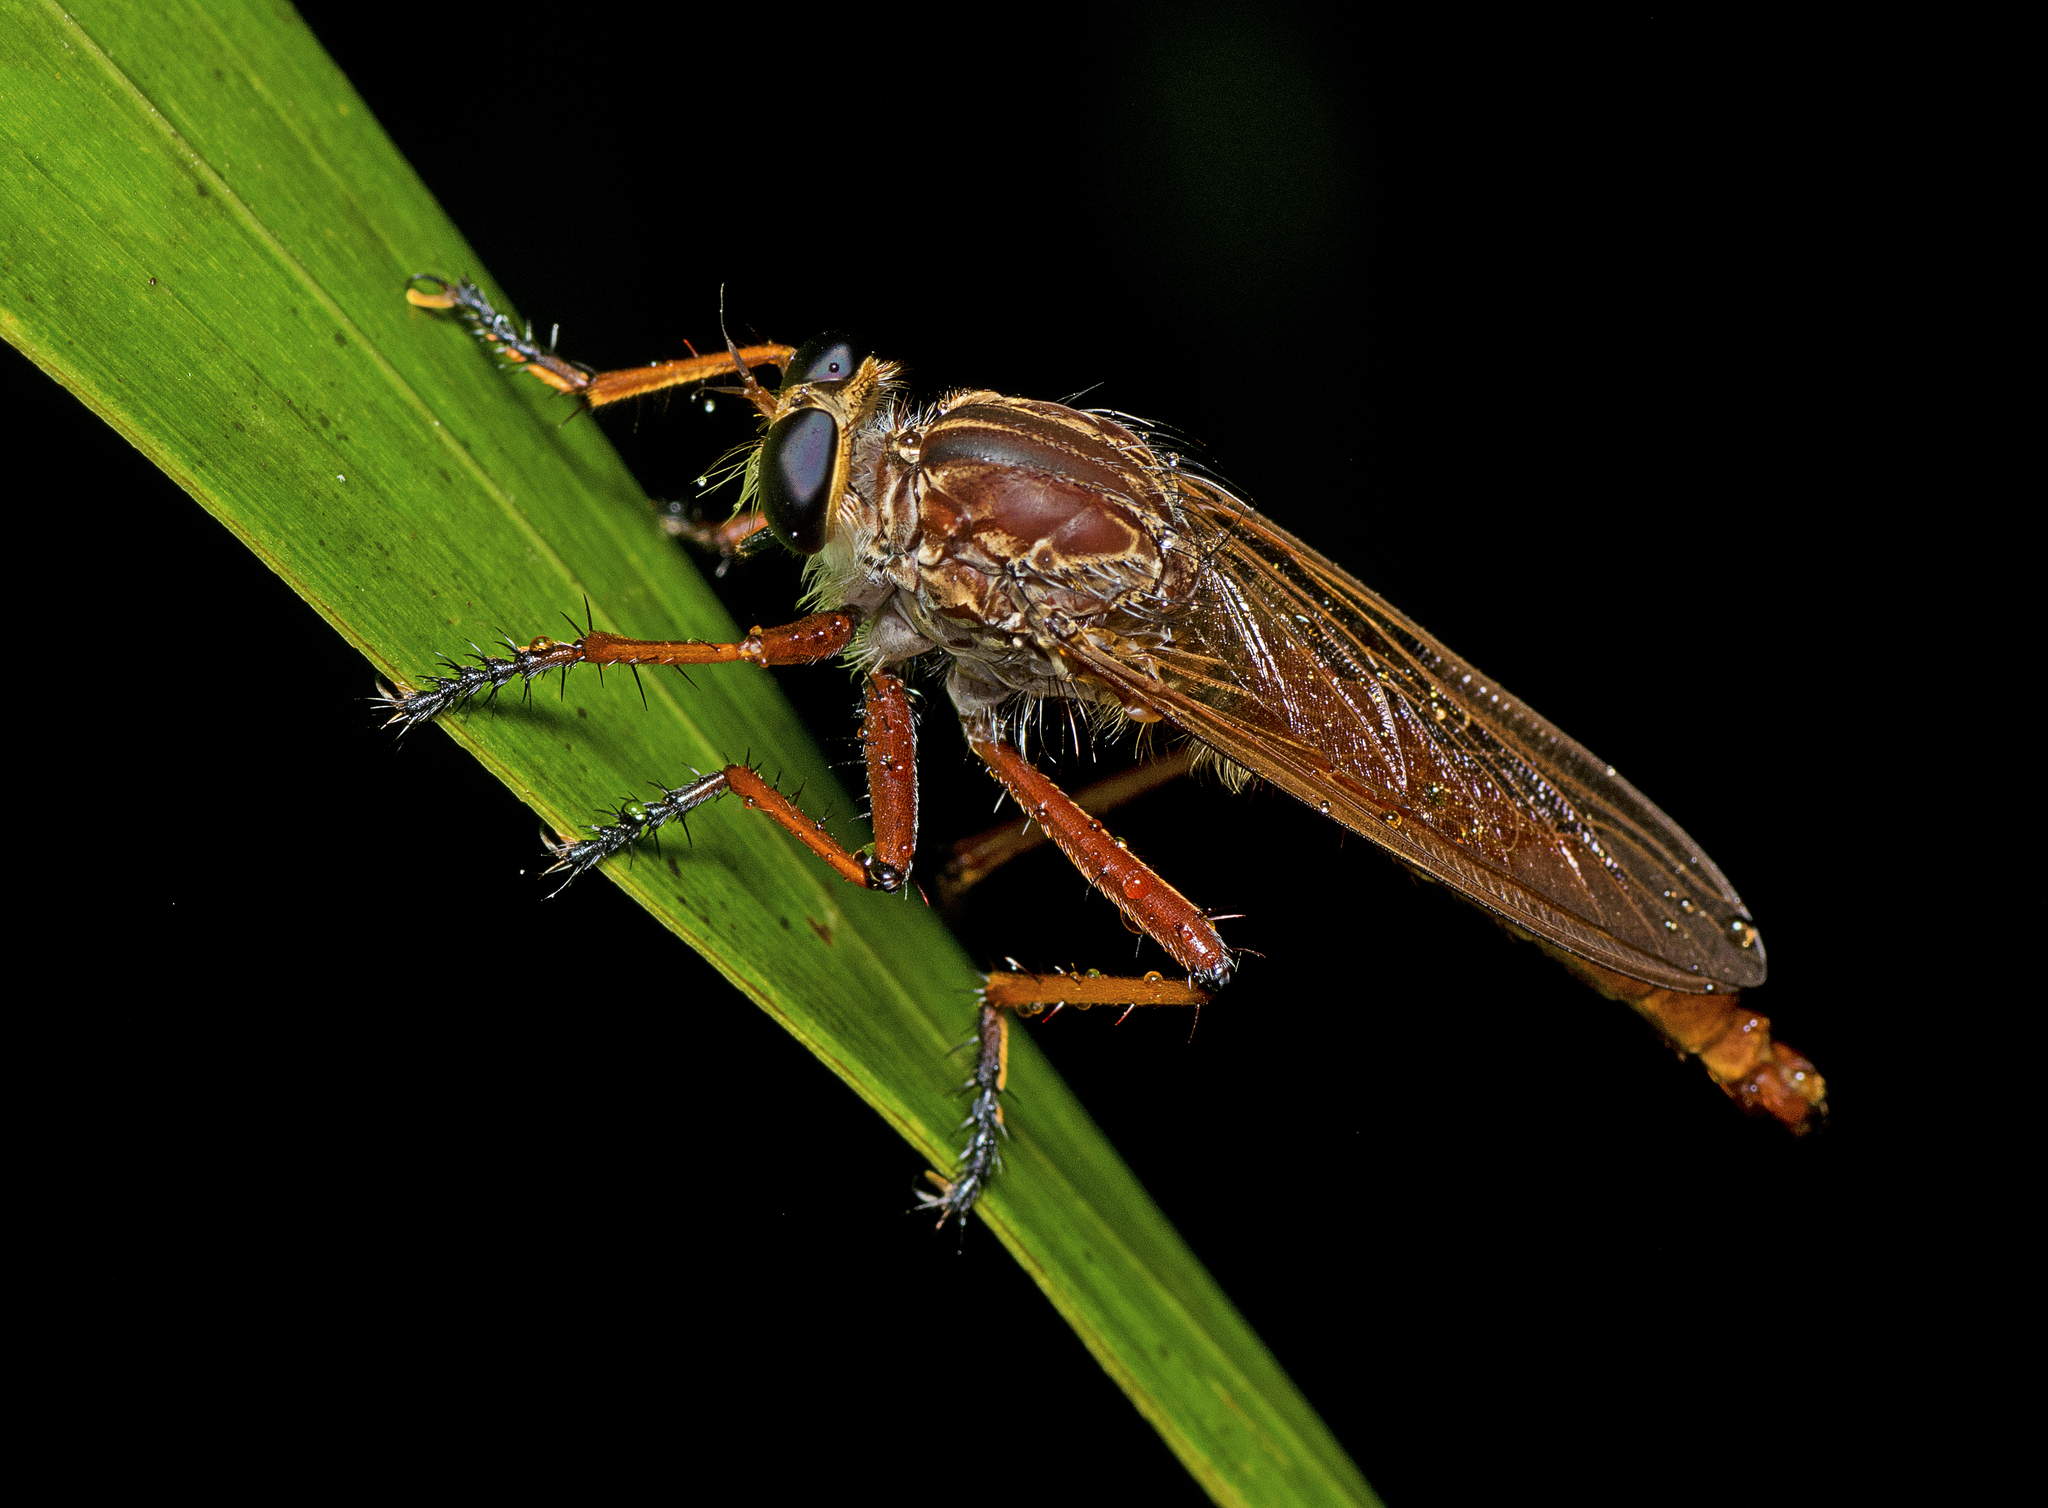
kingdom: Animalia
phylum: Arthropoda
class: Insecta
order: Diptera
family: Asilidae
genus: Colepia
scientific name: Colepia horrida
